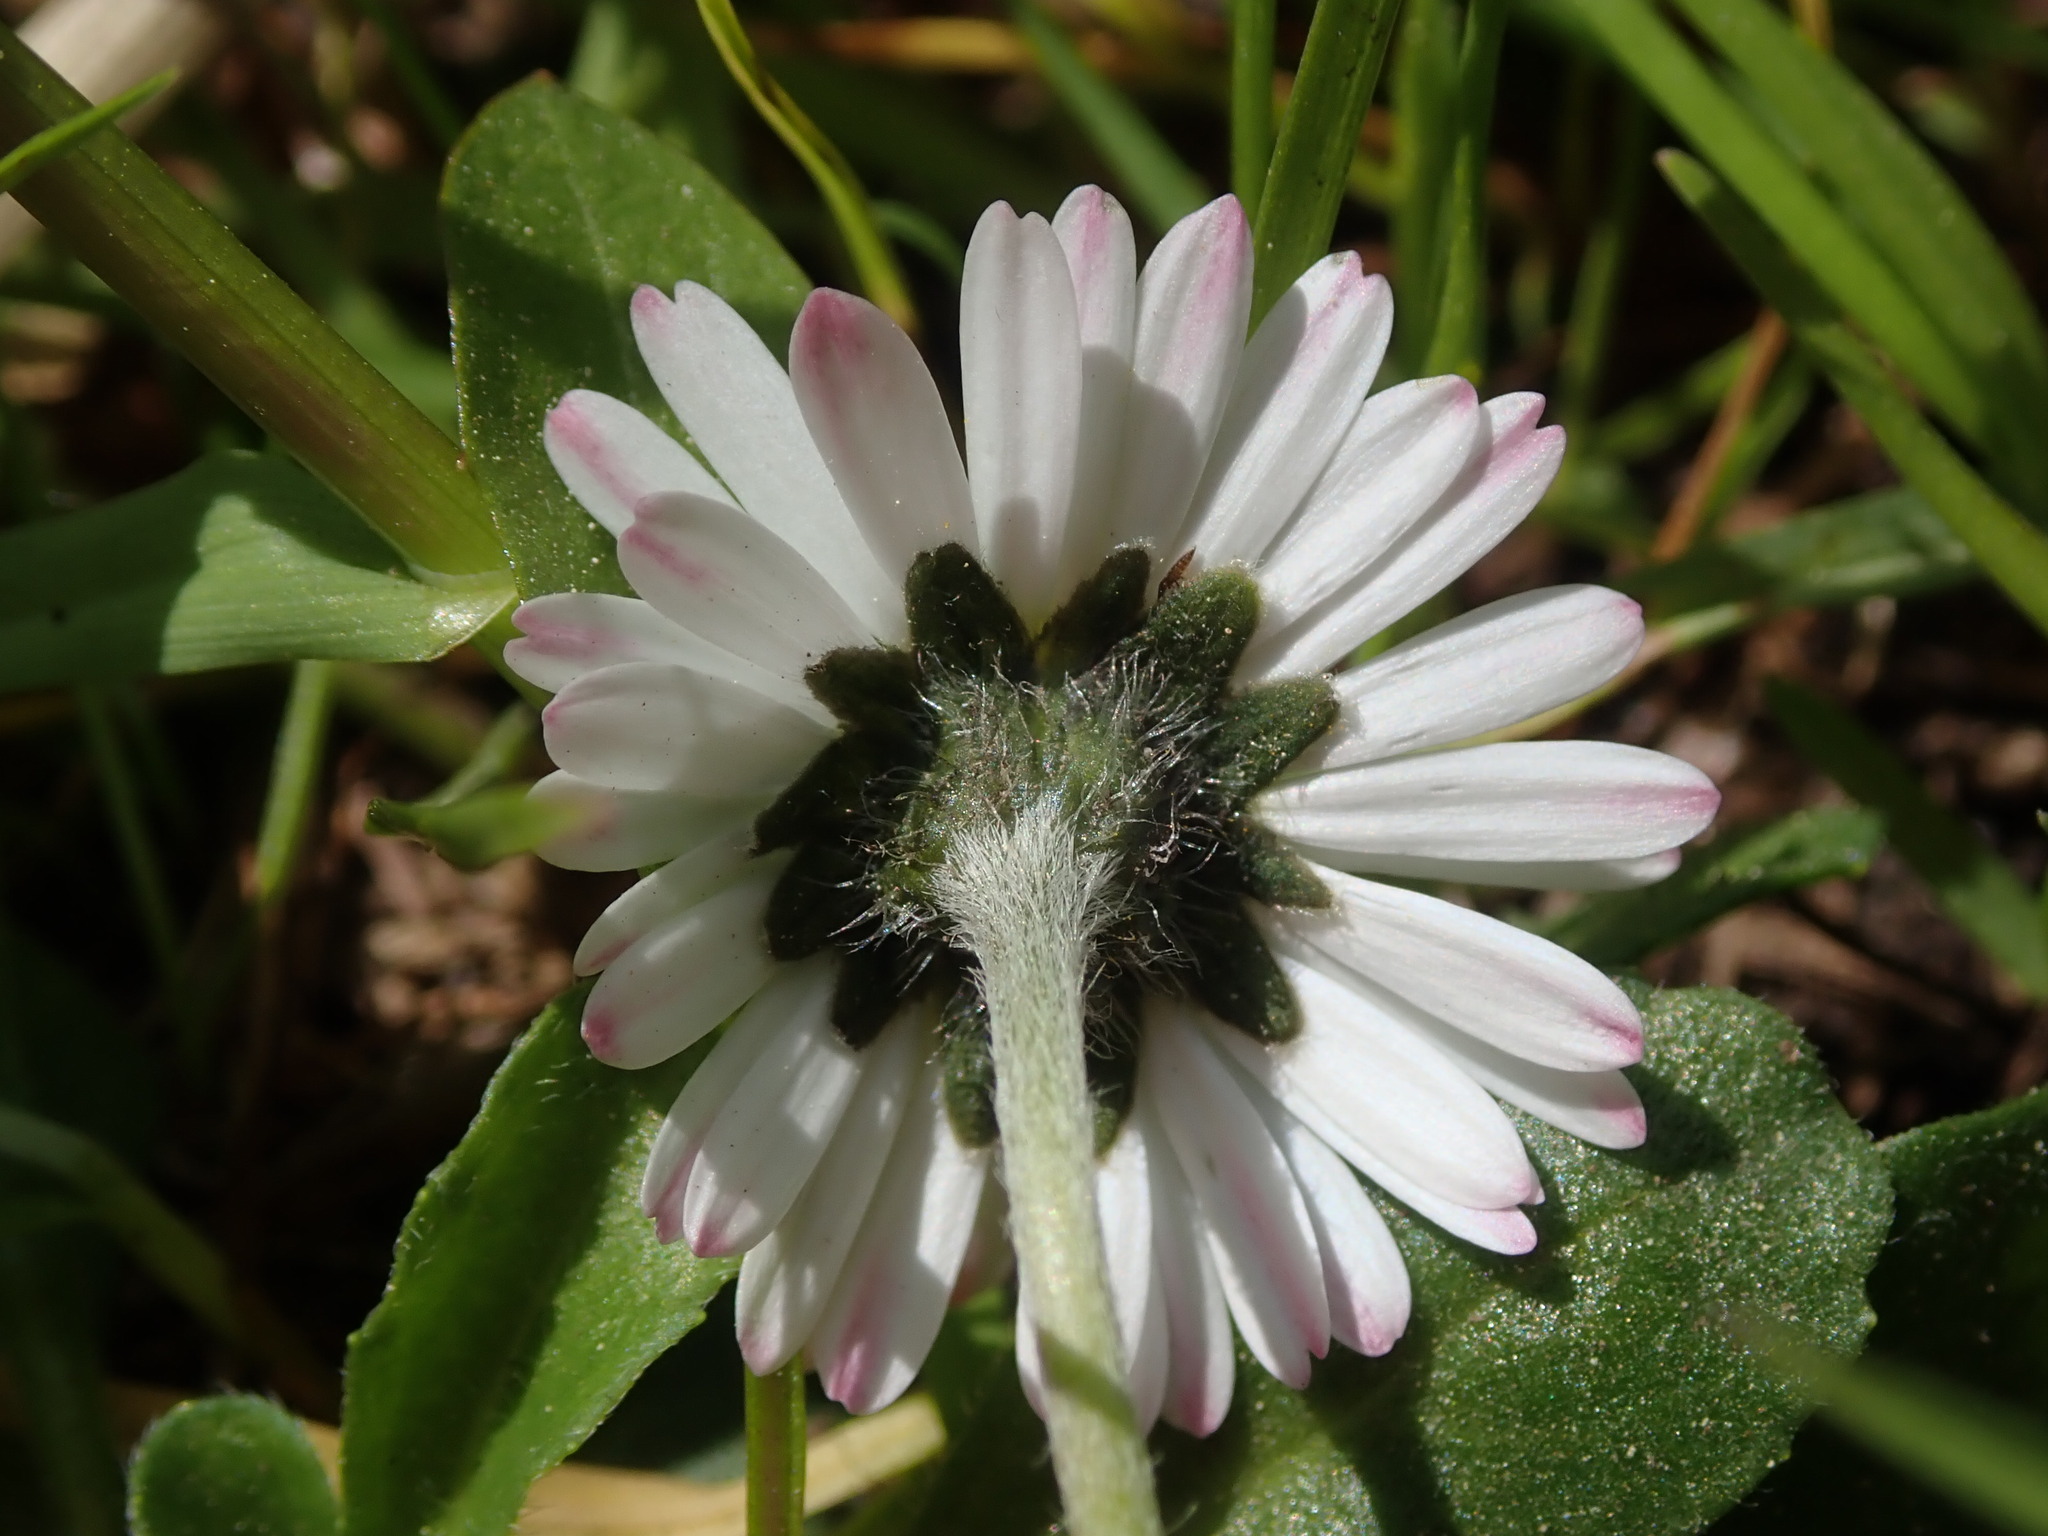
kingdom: Plantae
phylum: Tracheophyta
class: Magnoliopsida
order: Asterales
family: Asteraceae
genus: Bellis
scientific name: Bellis perennis
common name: Lawndaisy
